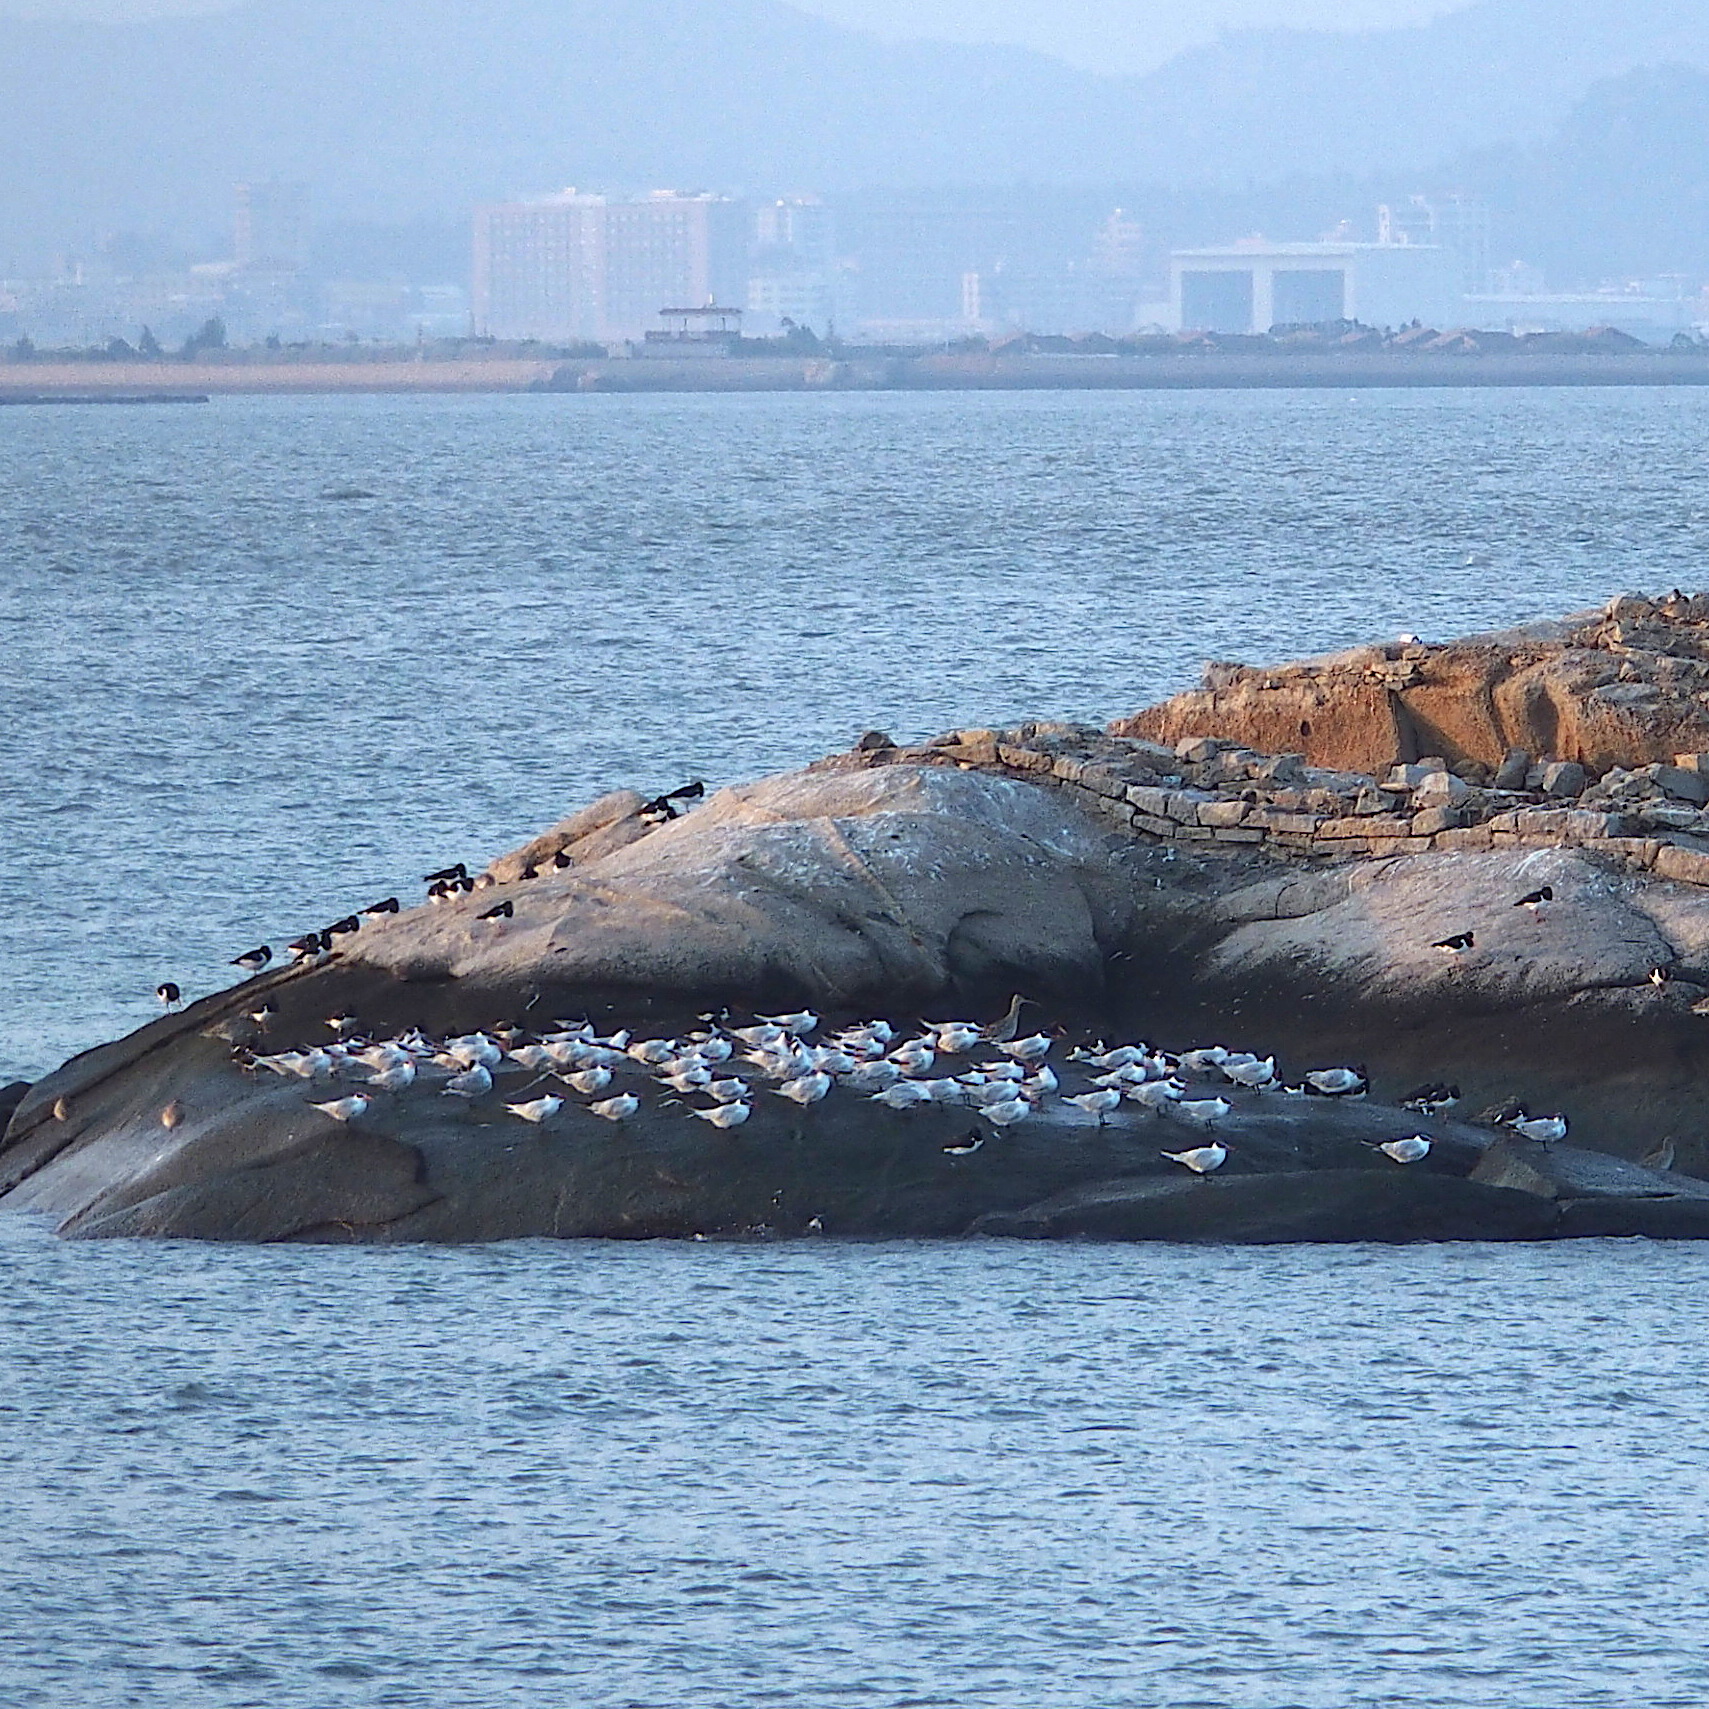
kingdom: Animalia
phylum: Chordata
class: Aves
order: Charadriiformes
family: Laridae
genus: Hydroprogne
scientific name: Hydroprogne caspia
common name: Caspian tern
